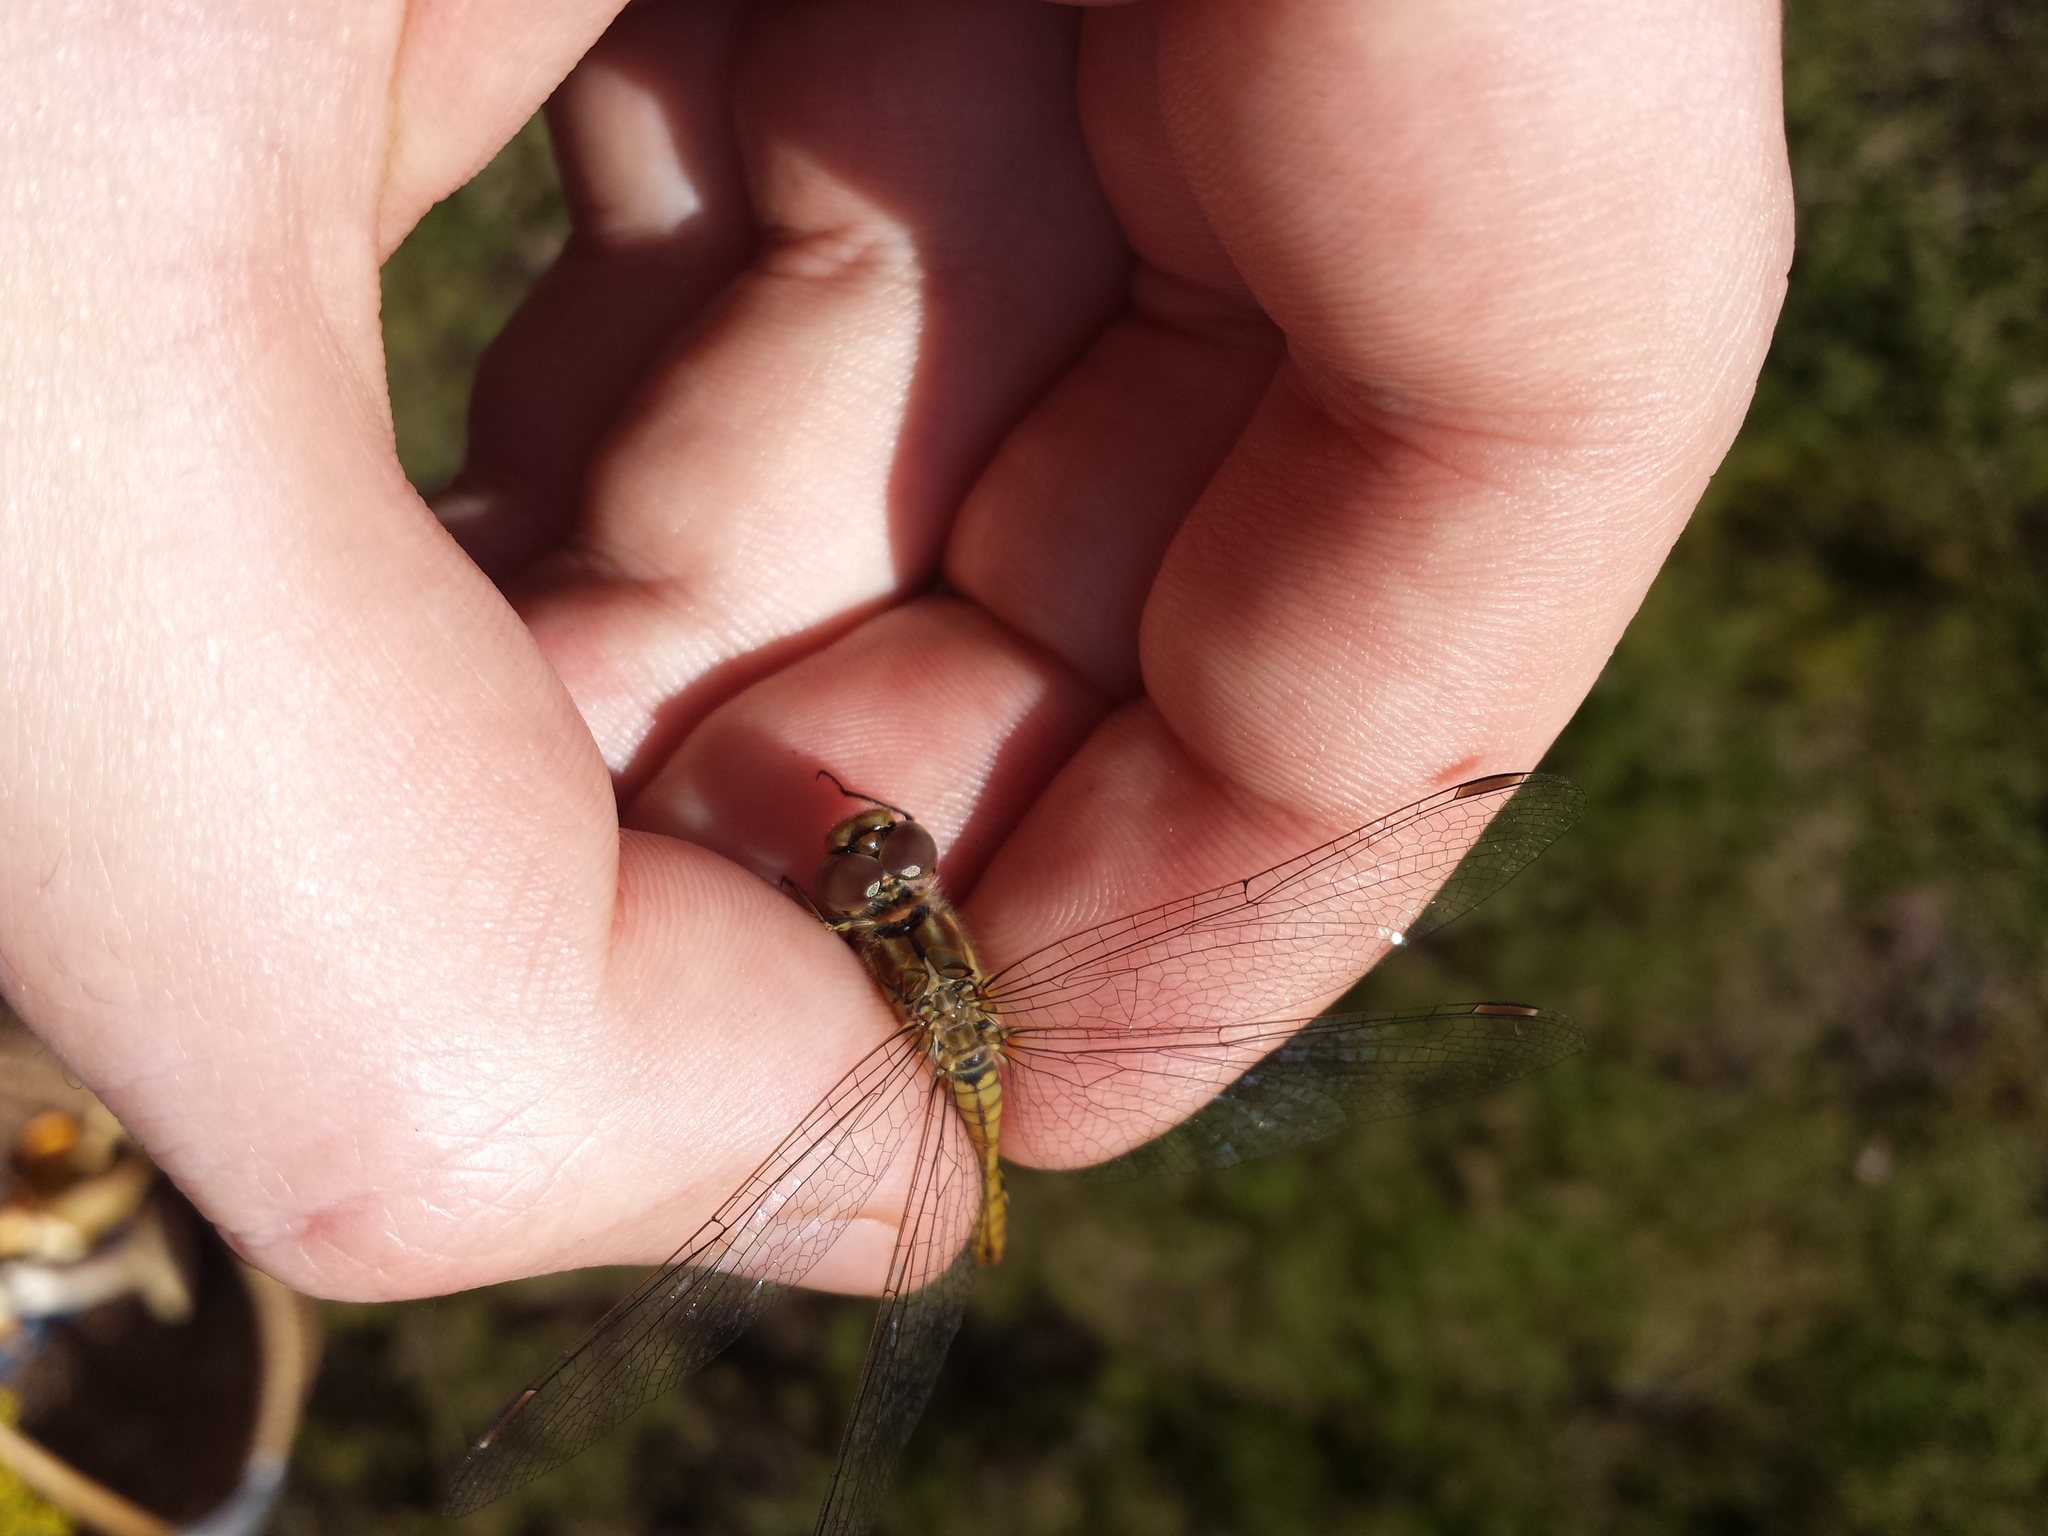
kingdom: Animalia
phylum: Arthropoda
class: Insecta
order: Odonata
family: Libellulidae
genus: Sympetrum
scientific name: Sympetrum vulgatum
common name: Vagrant darter
